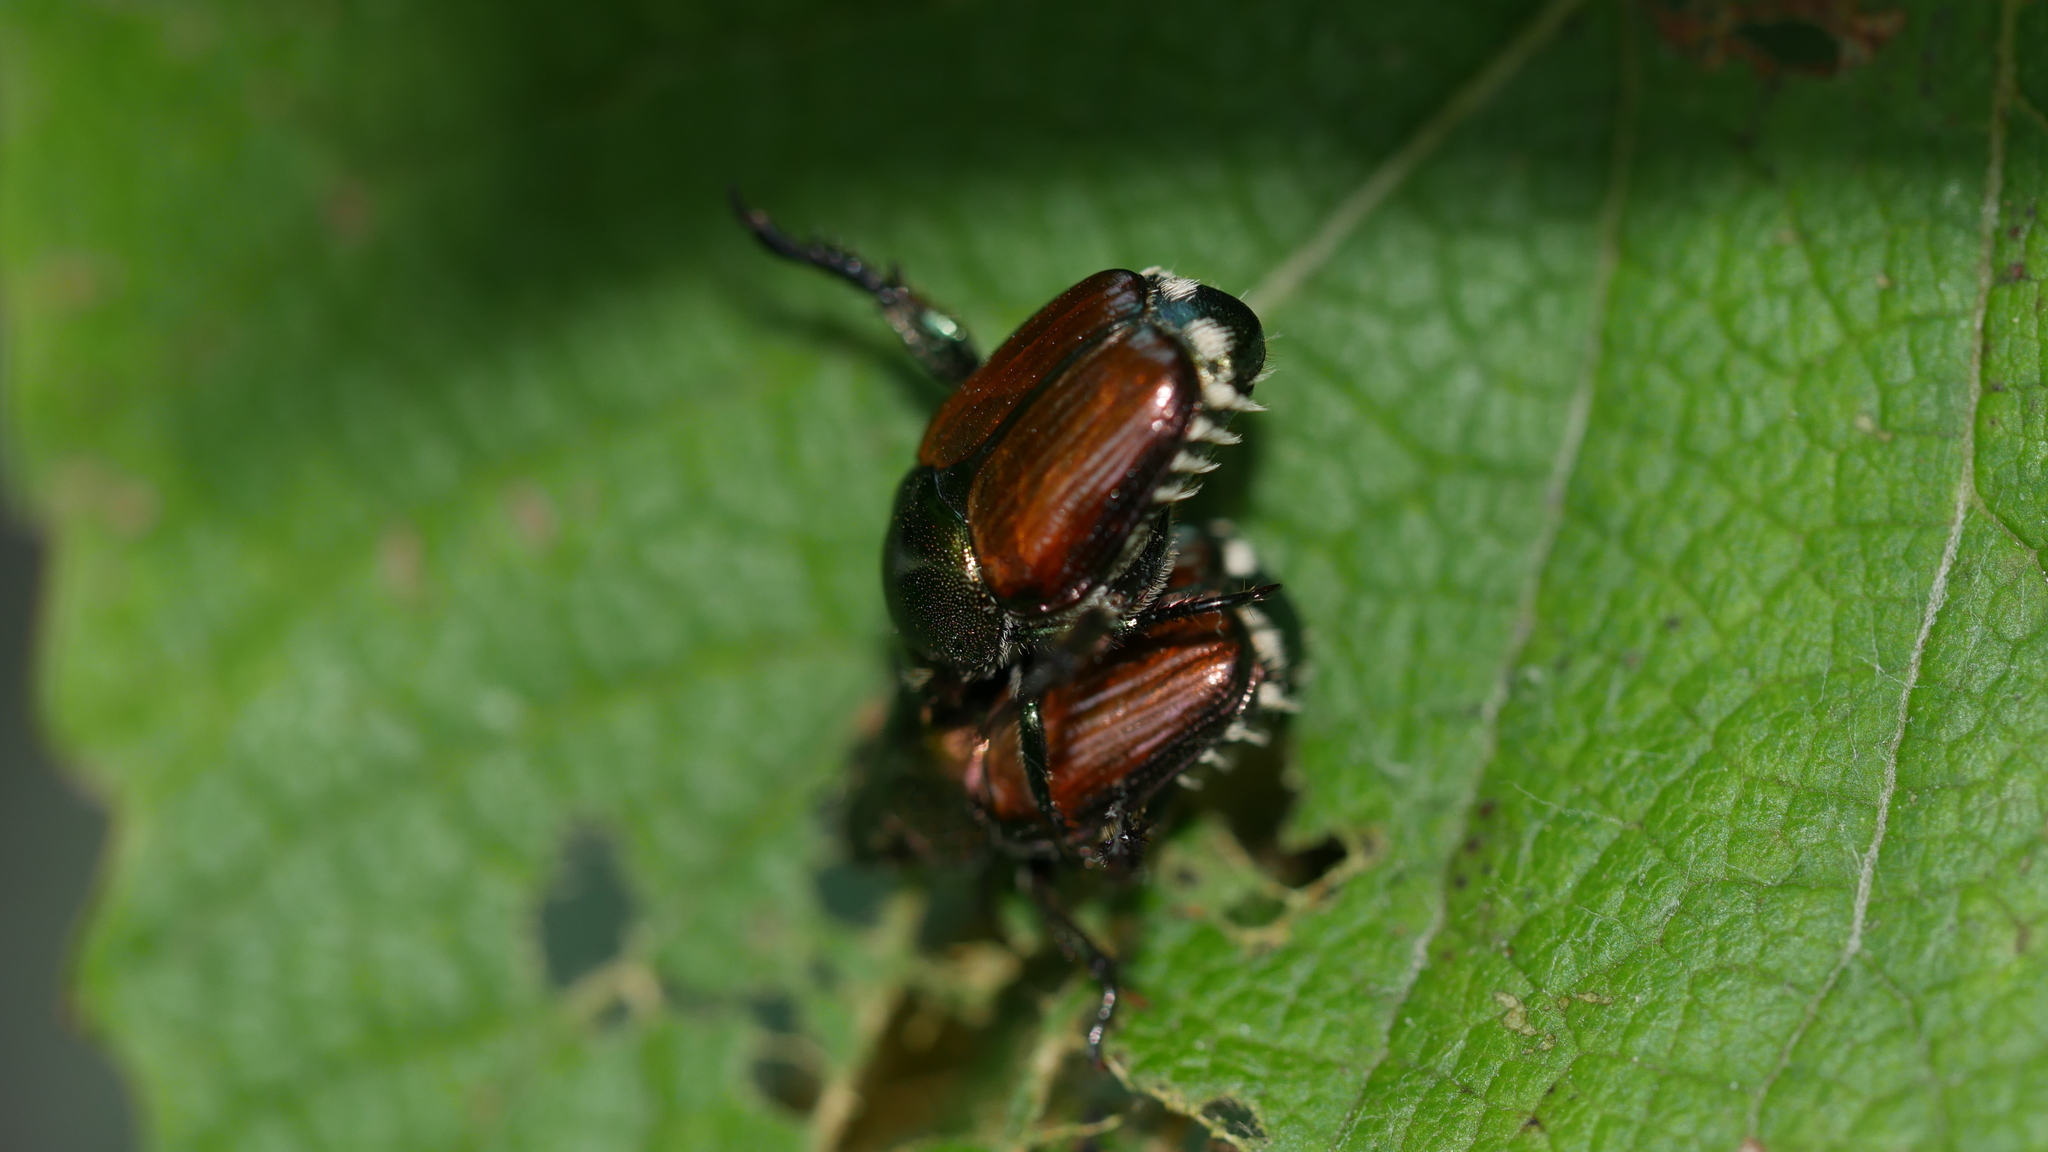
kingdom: Animalia
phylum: Arthropoda
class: Insecta
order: Coleoptera
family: Scarabaeidae
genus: Popillia
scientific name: Popillia japonica
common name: Japanese beetle
